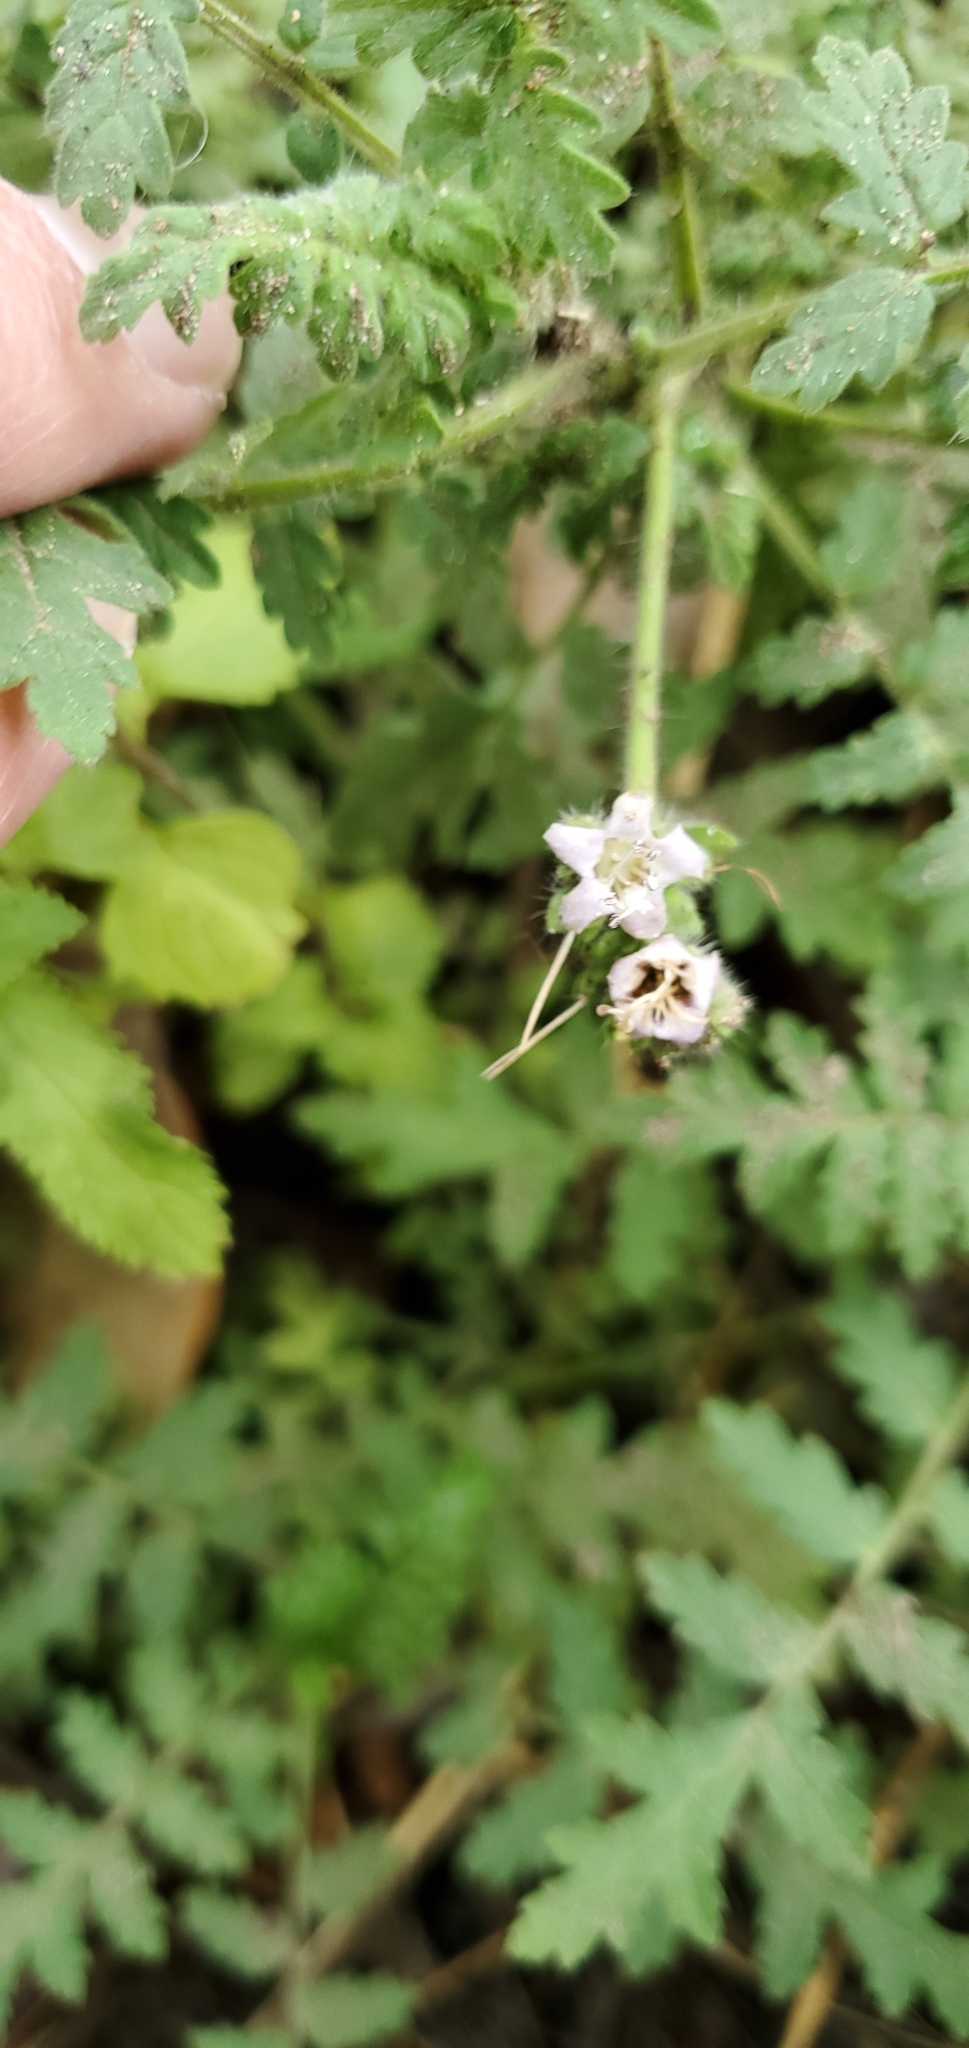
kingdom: Plantae
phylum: Tracheophyta
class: Magnoliopsida
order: Boraginales
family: Hydrophyllaceae
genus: Eucrypta
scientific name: Eucrypta chrysanthemifolia
